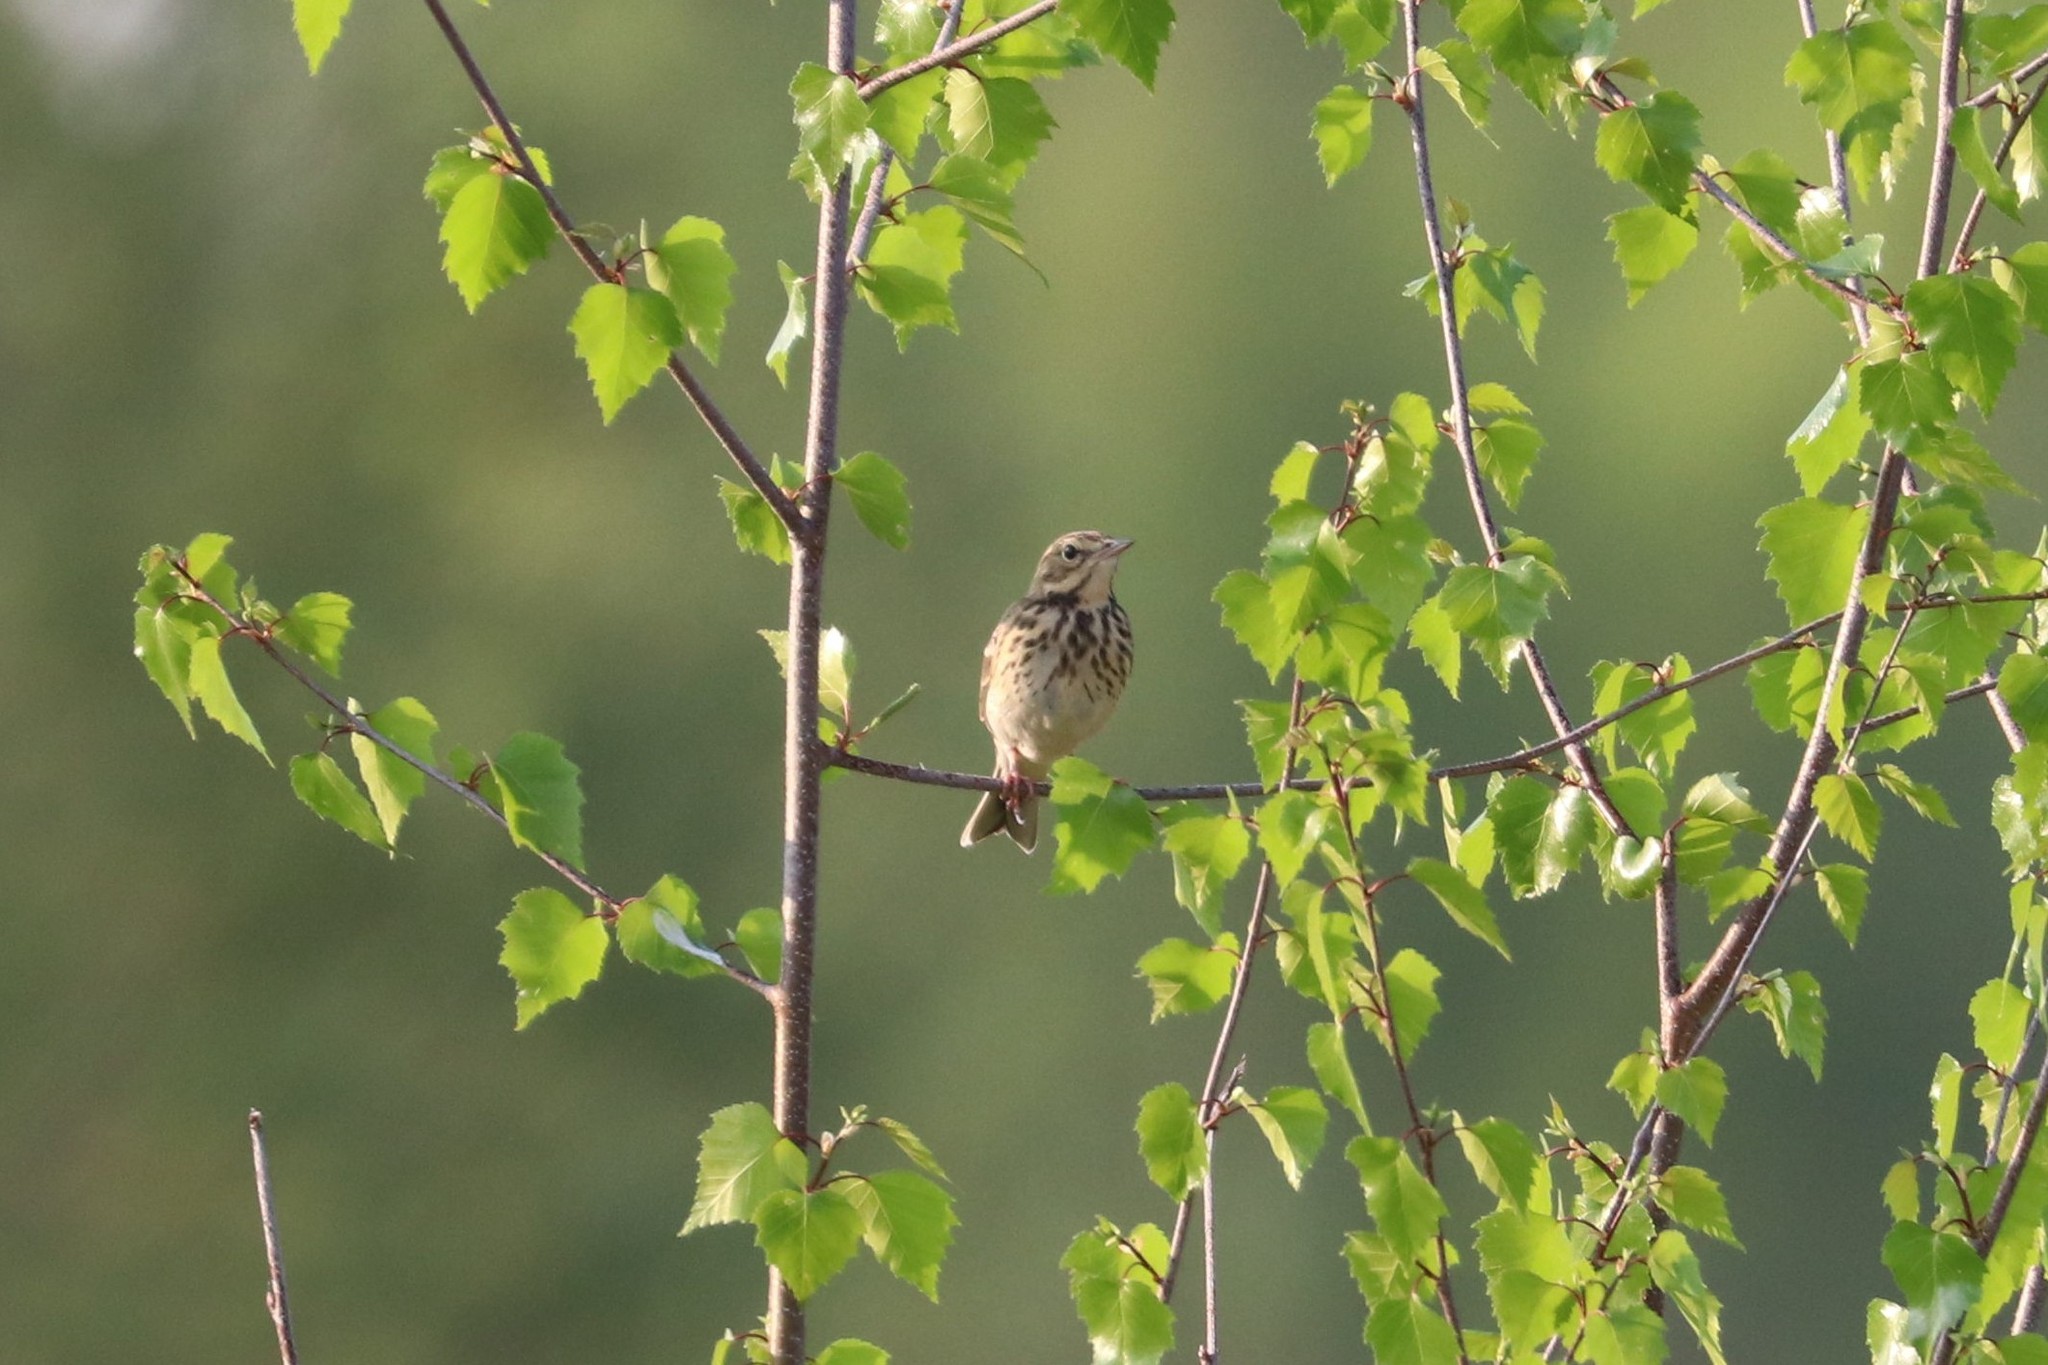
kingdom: Animalia
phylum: Chordata
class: Aves
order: Passeriformes
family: Motacillidae
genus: Anthus
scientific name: Anthus trivialis
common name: Tree pipit
